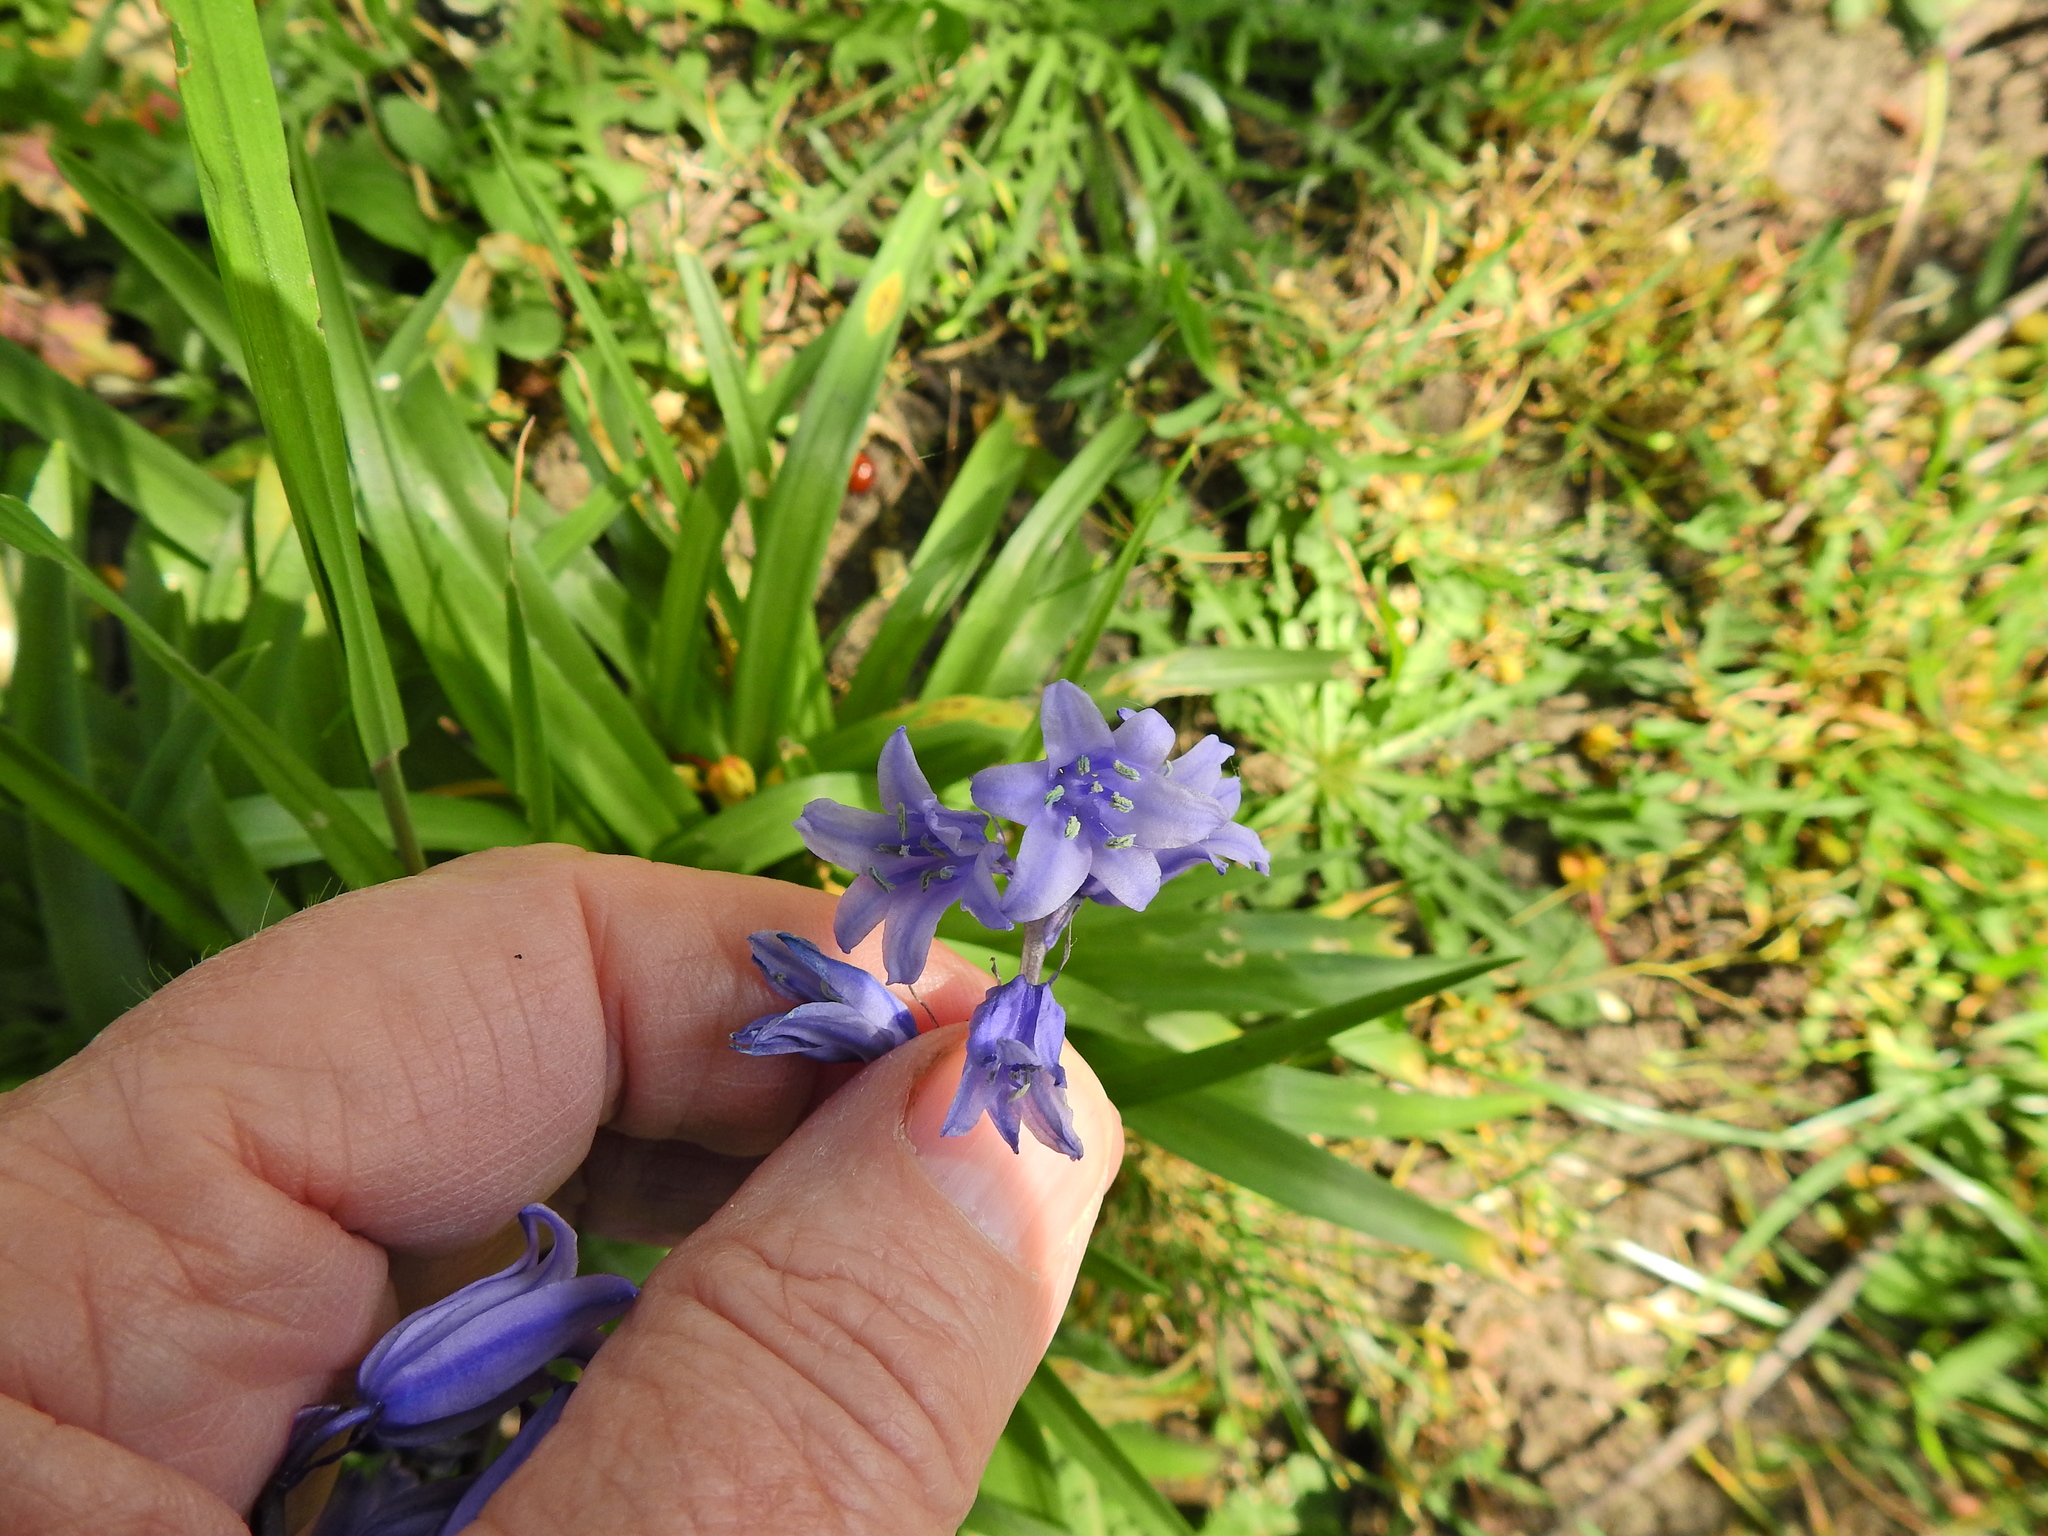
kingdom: Plantae
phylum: Tracheophyta
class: Liliopsida
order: Asparagales
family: Asparagaceae
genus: Hyacinthoides
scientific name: Hyacinthoides hispanica
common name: Spanish bluebell
